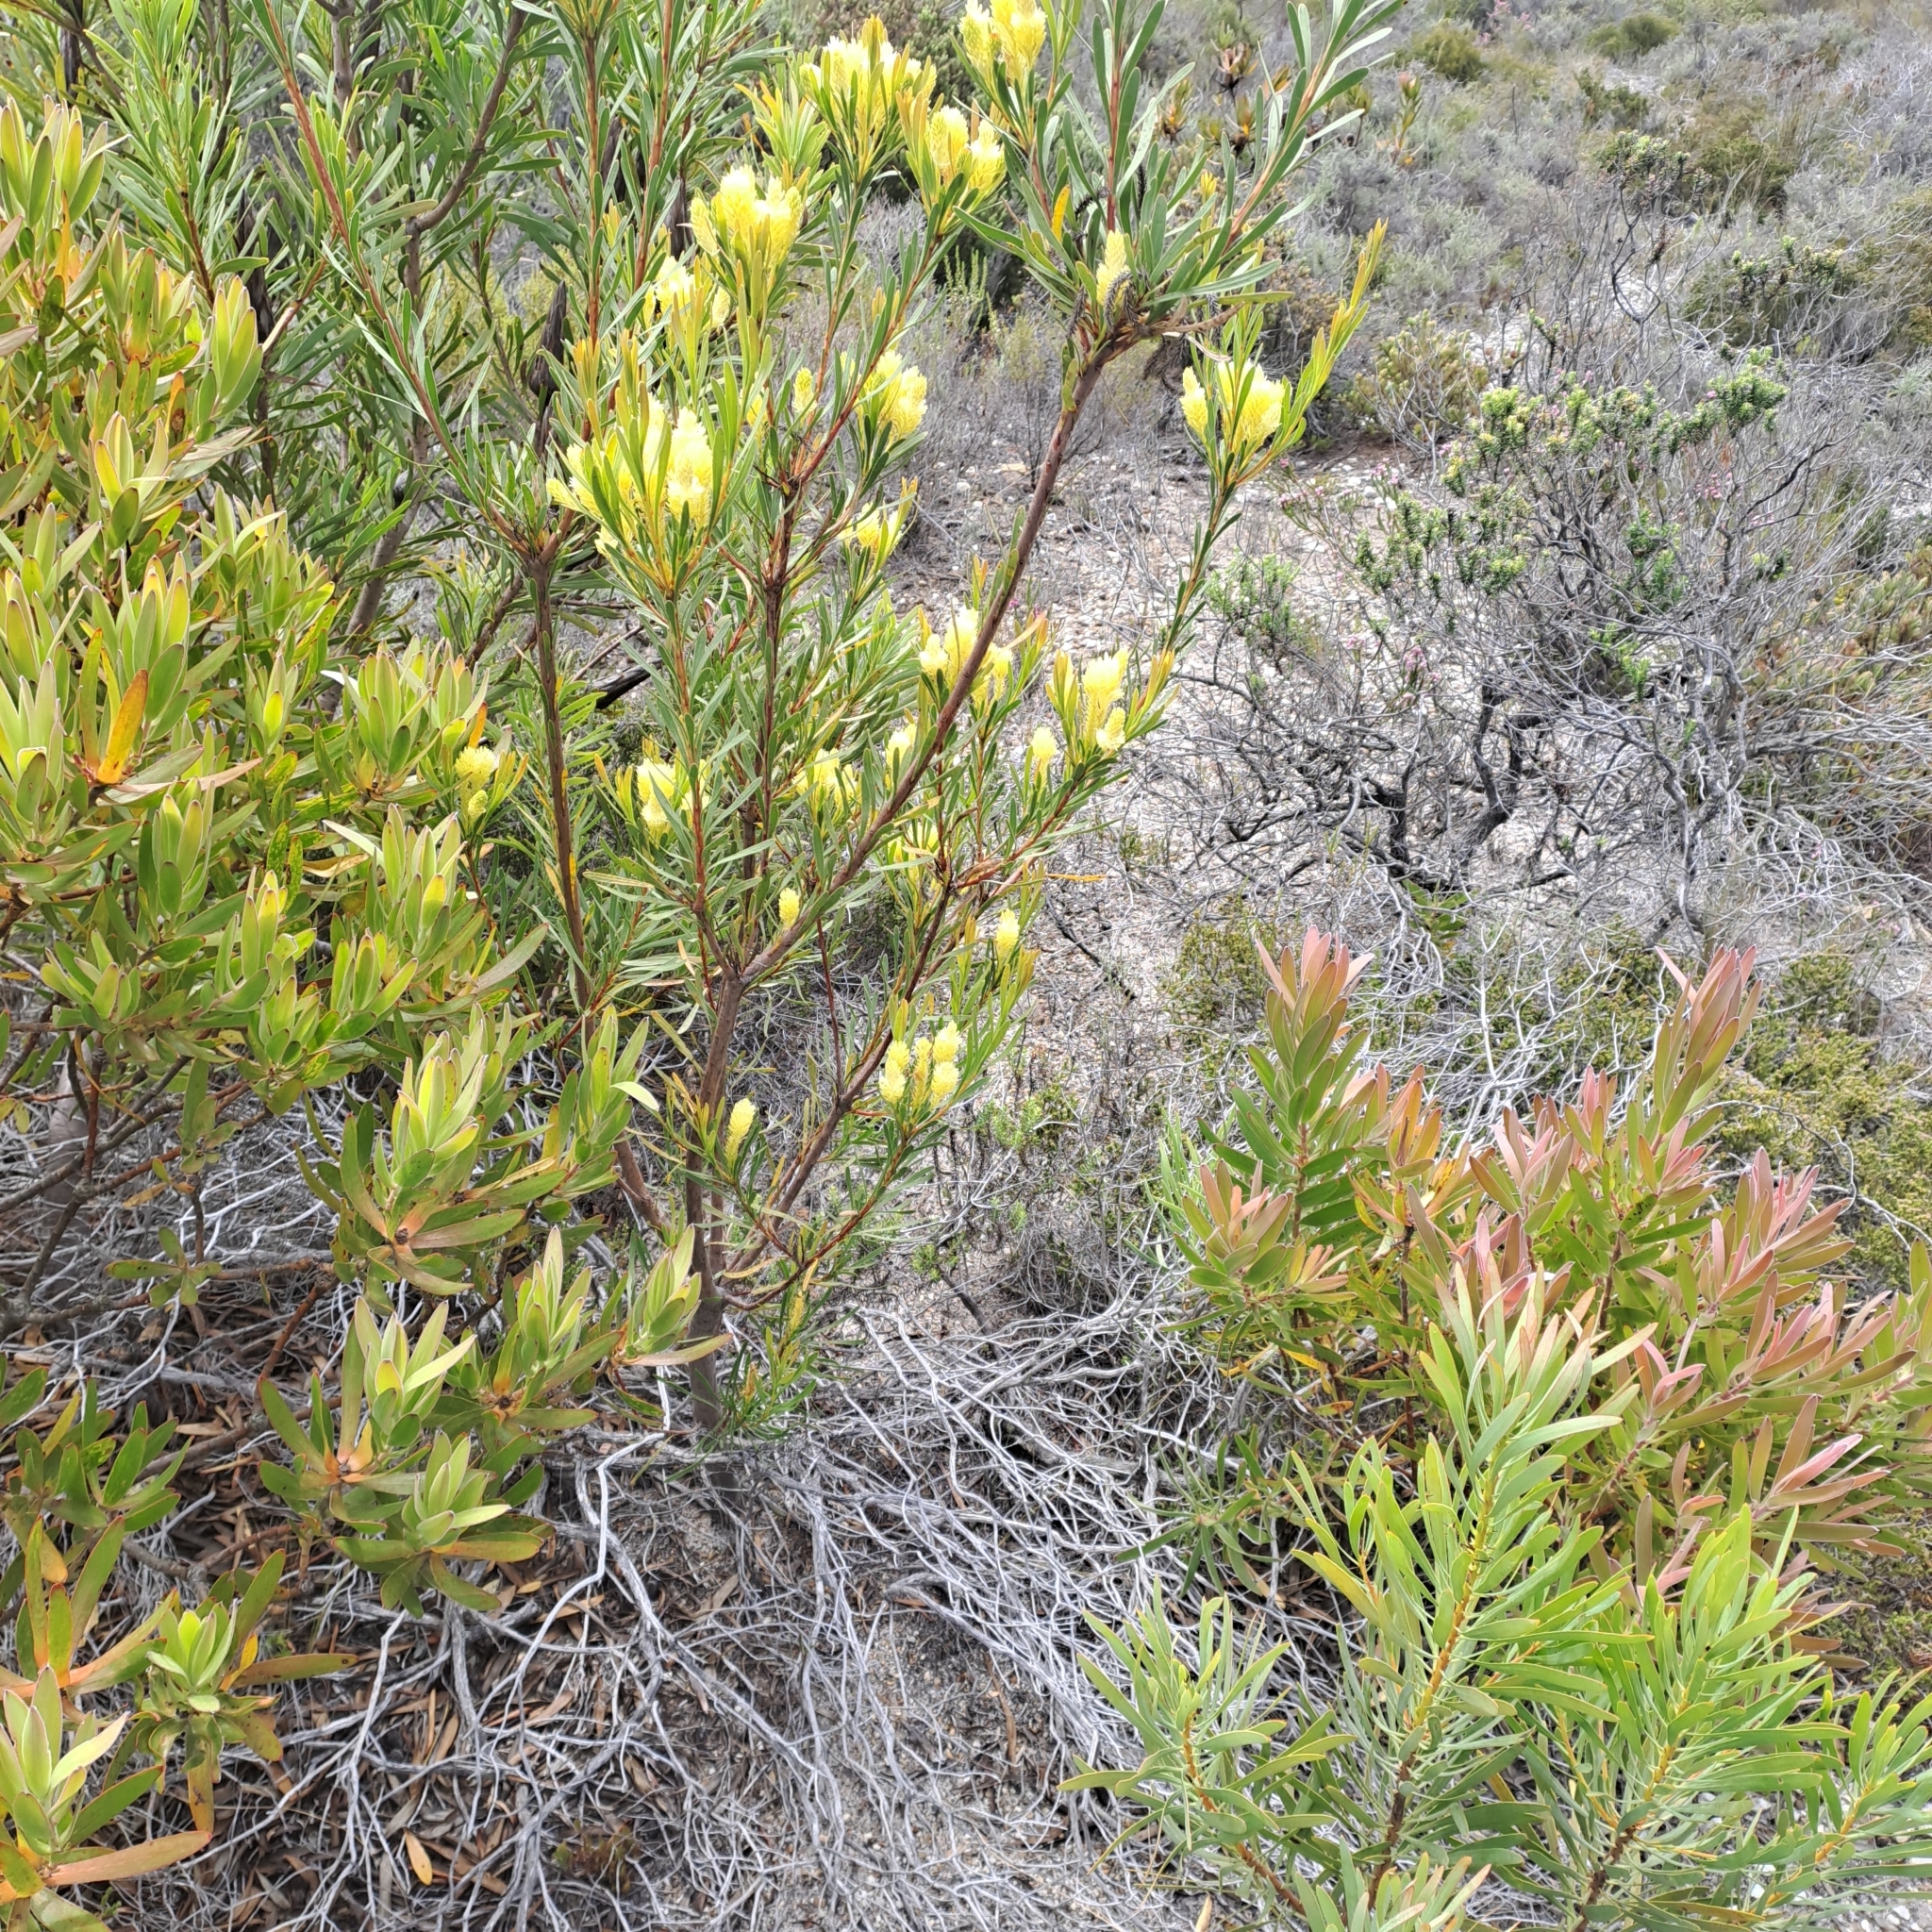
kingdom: Plantae
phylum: Tracheophyta
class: Magnoliopsida
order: Proteales
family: Proteaceae
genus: Aulax
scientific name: Aulax umbellata
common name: Broad-leaf featherbush
